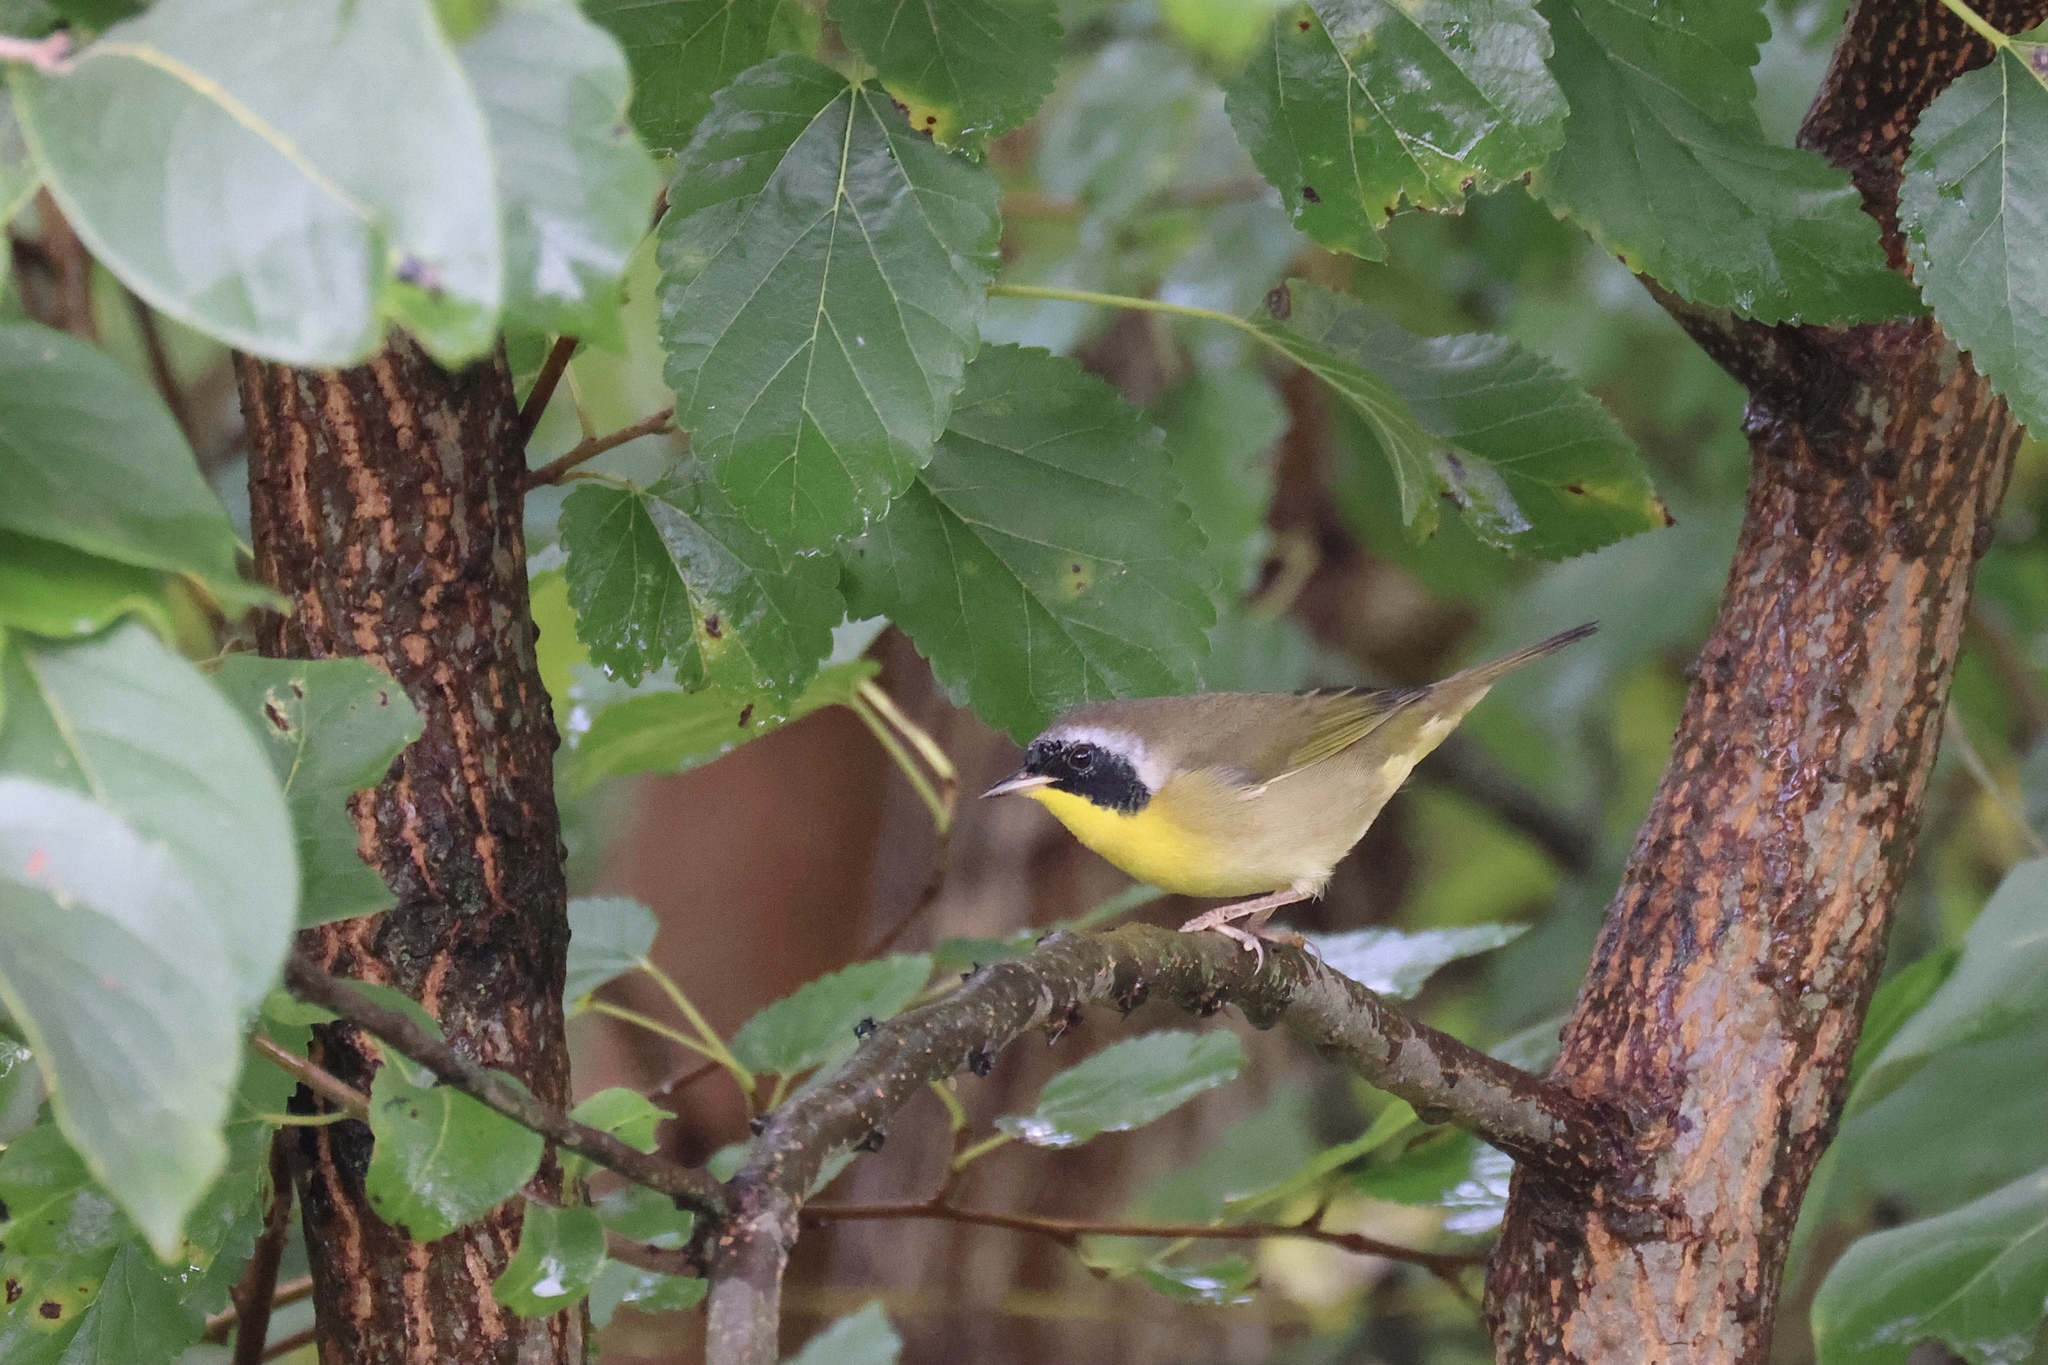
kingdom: Animalia
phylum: Chordata
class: Aves
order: Passeriformes
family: Parulidae
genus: Geothlypis
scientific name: Geothlypis trichas
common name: Common yellowthroat
